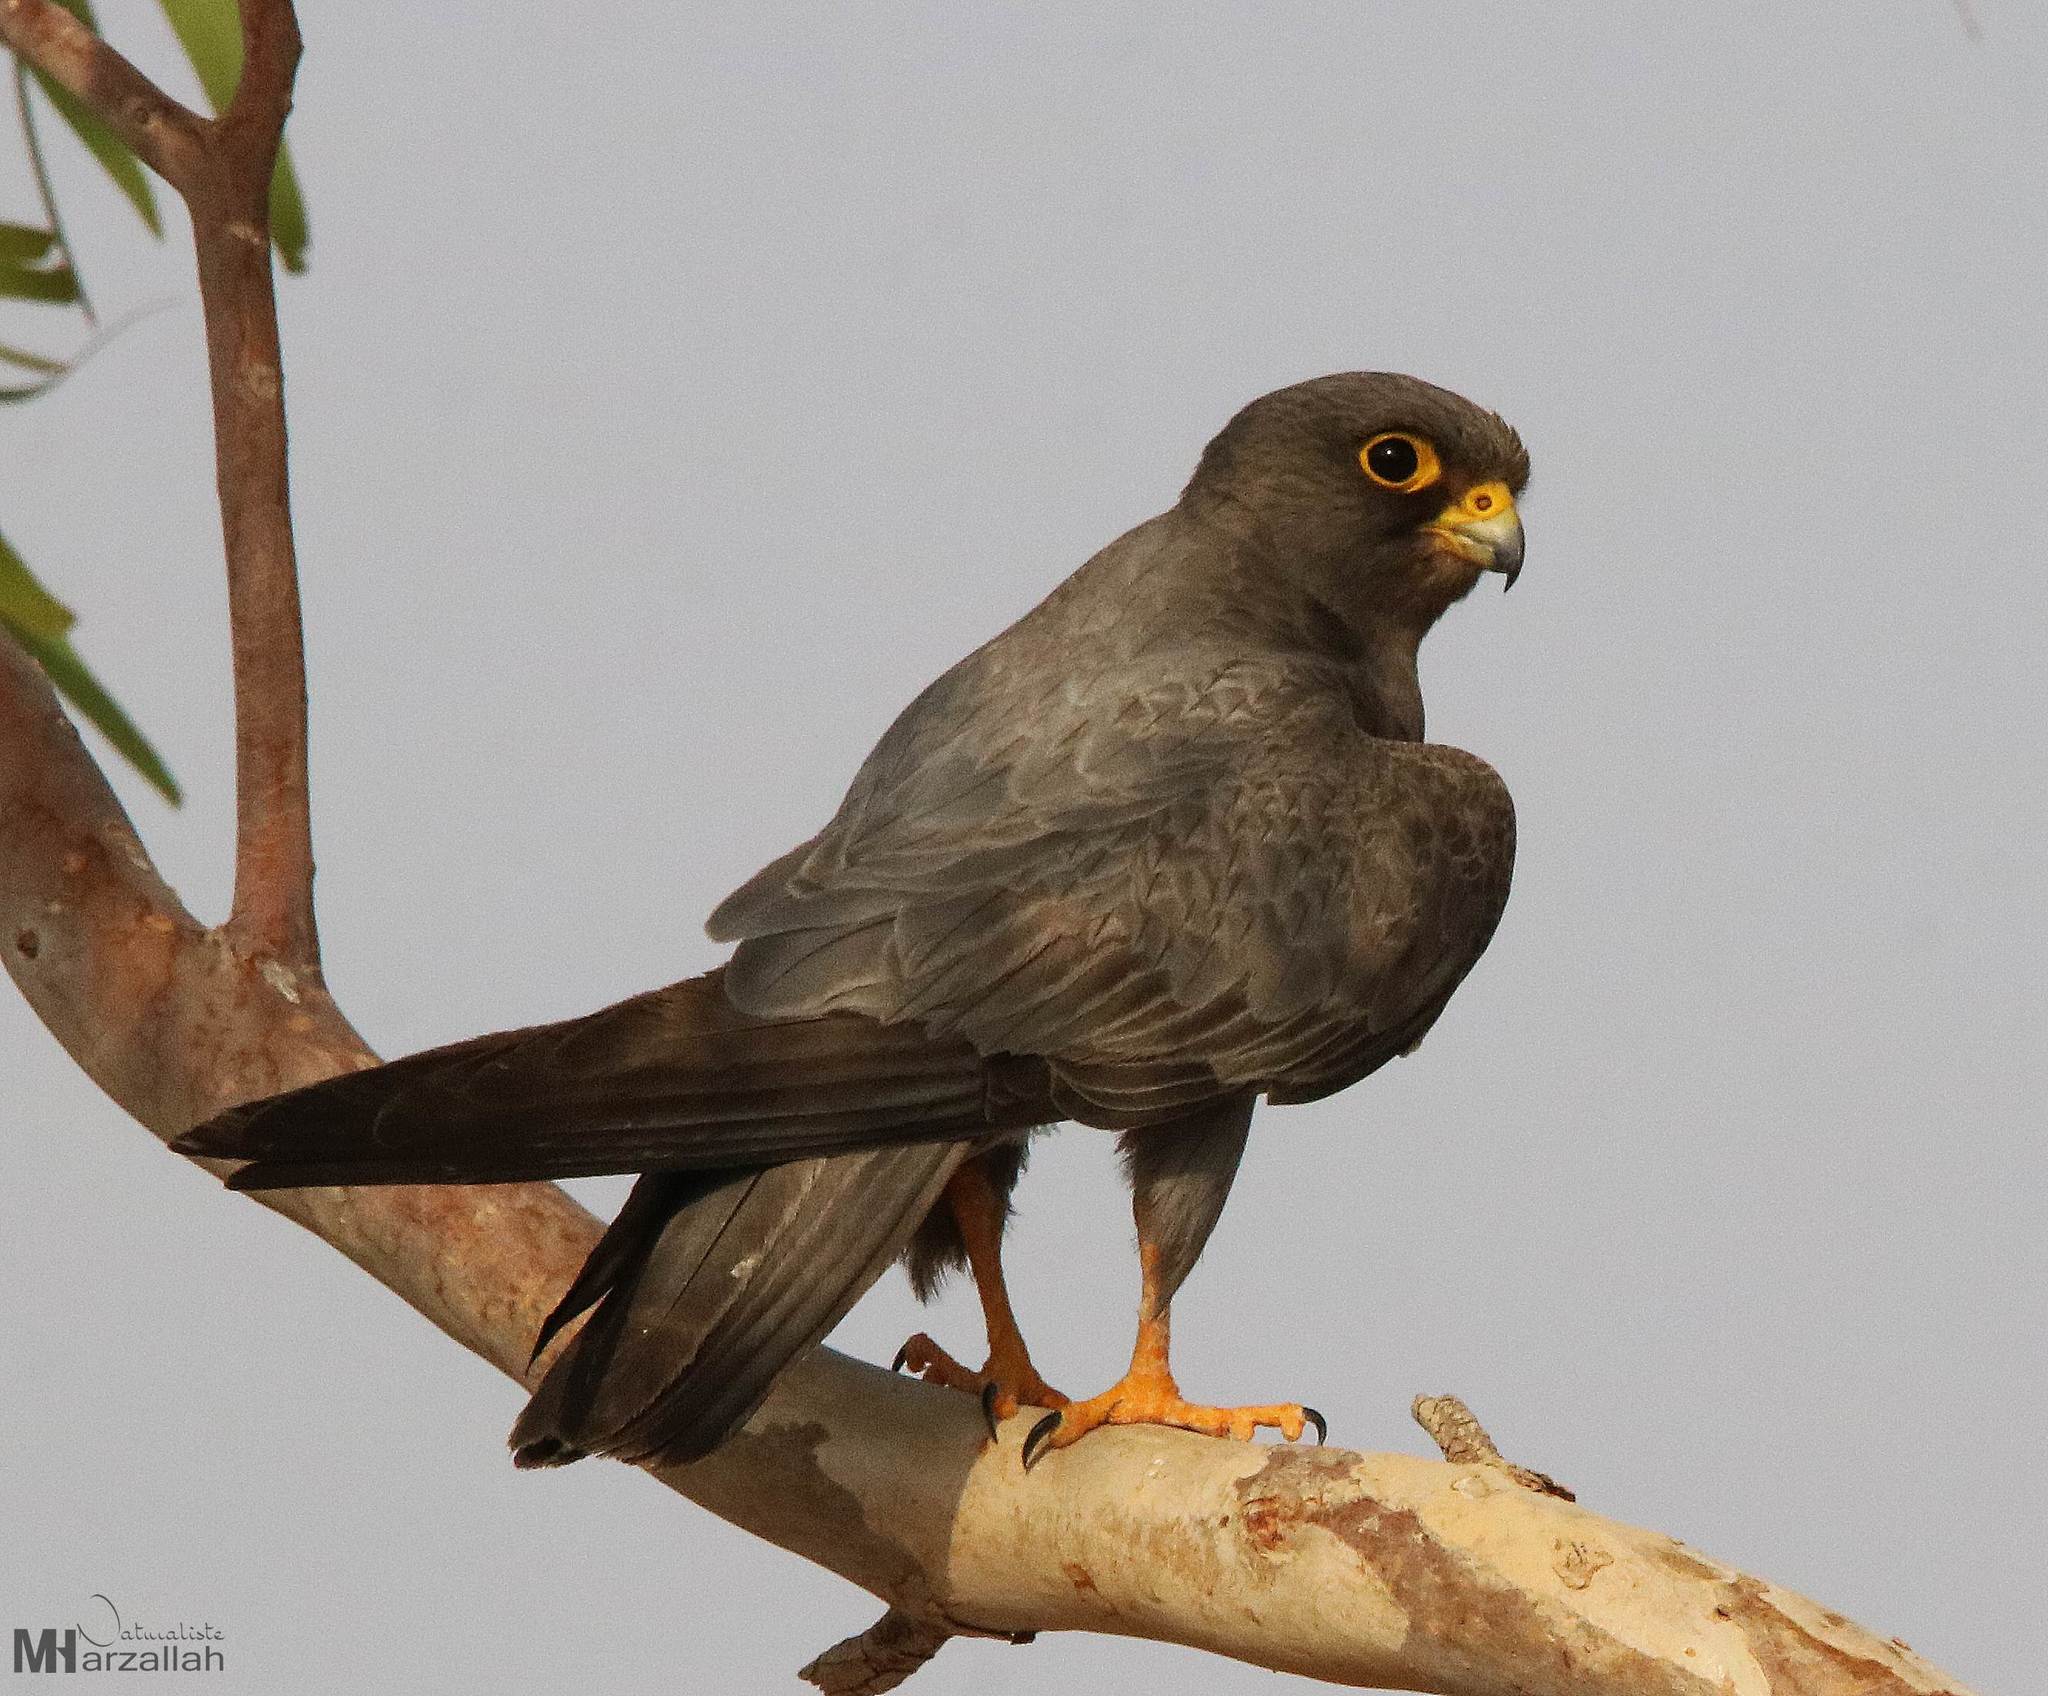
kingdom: Animalia
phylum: Chordata
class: Aves
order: Falconiformes
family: Falconidae
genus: Falco
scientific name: Falco concolor
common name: Sooty falcon
